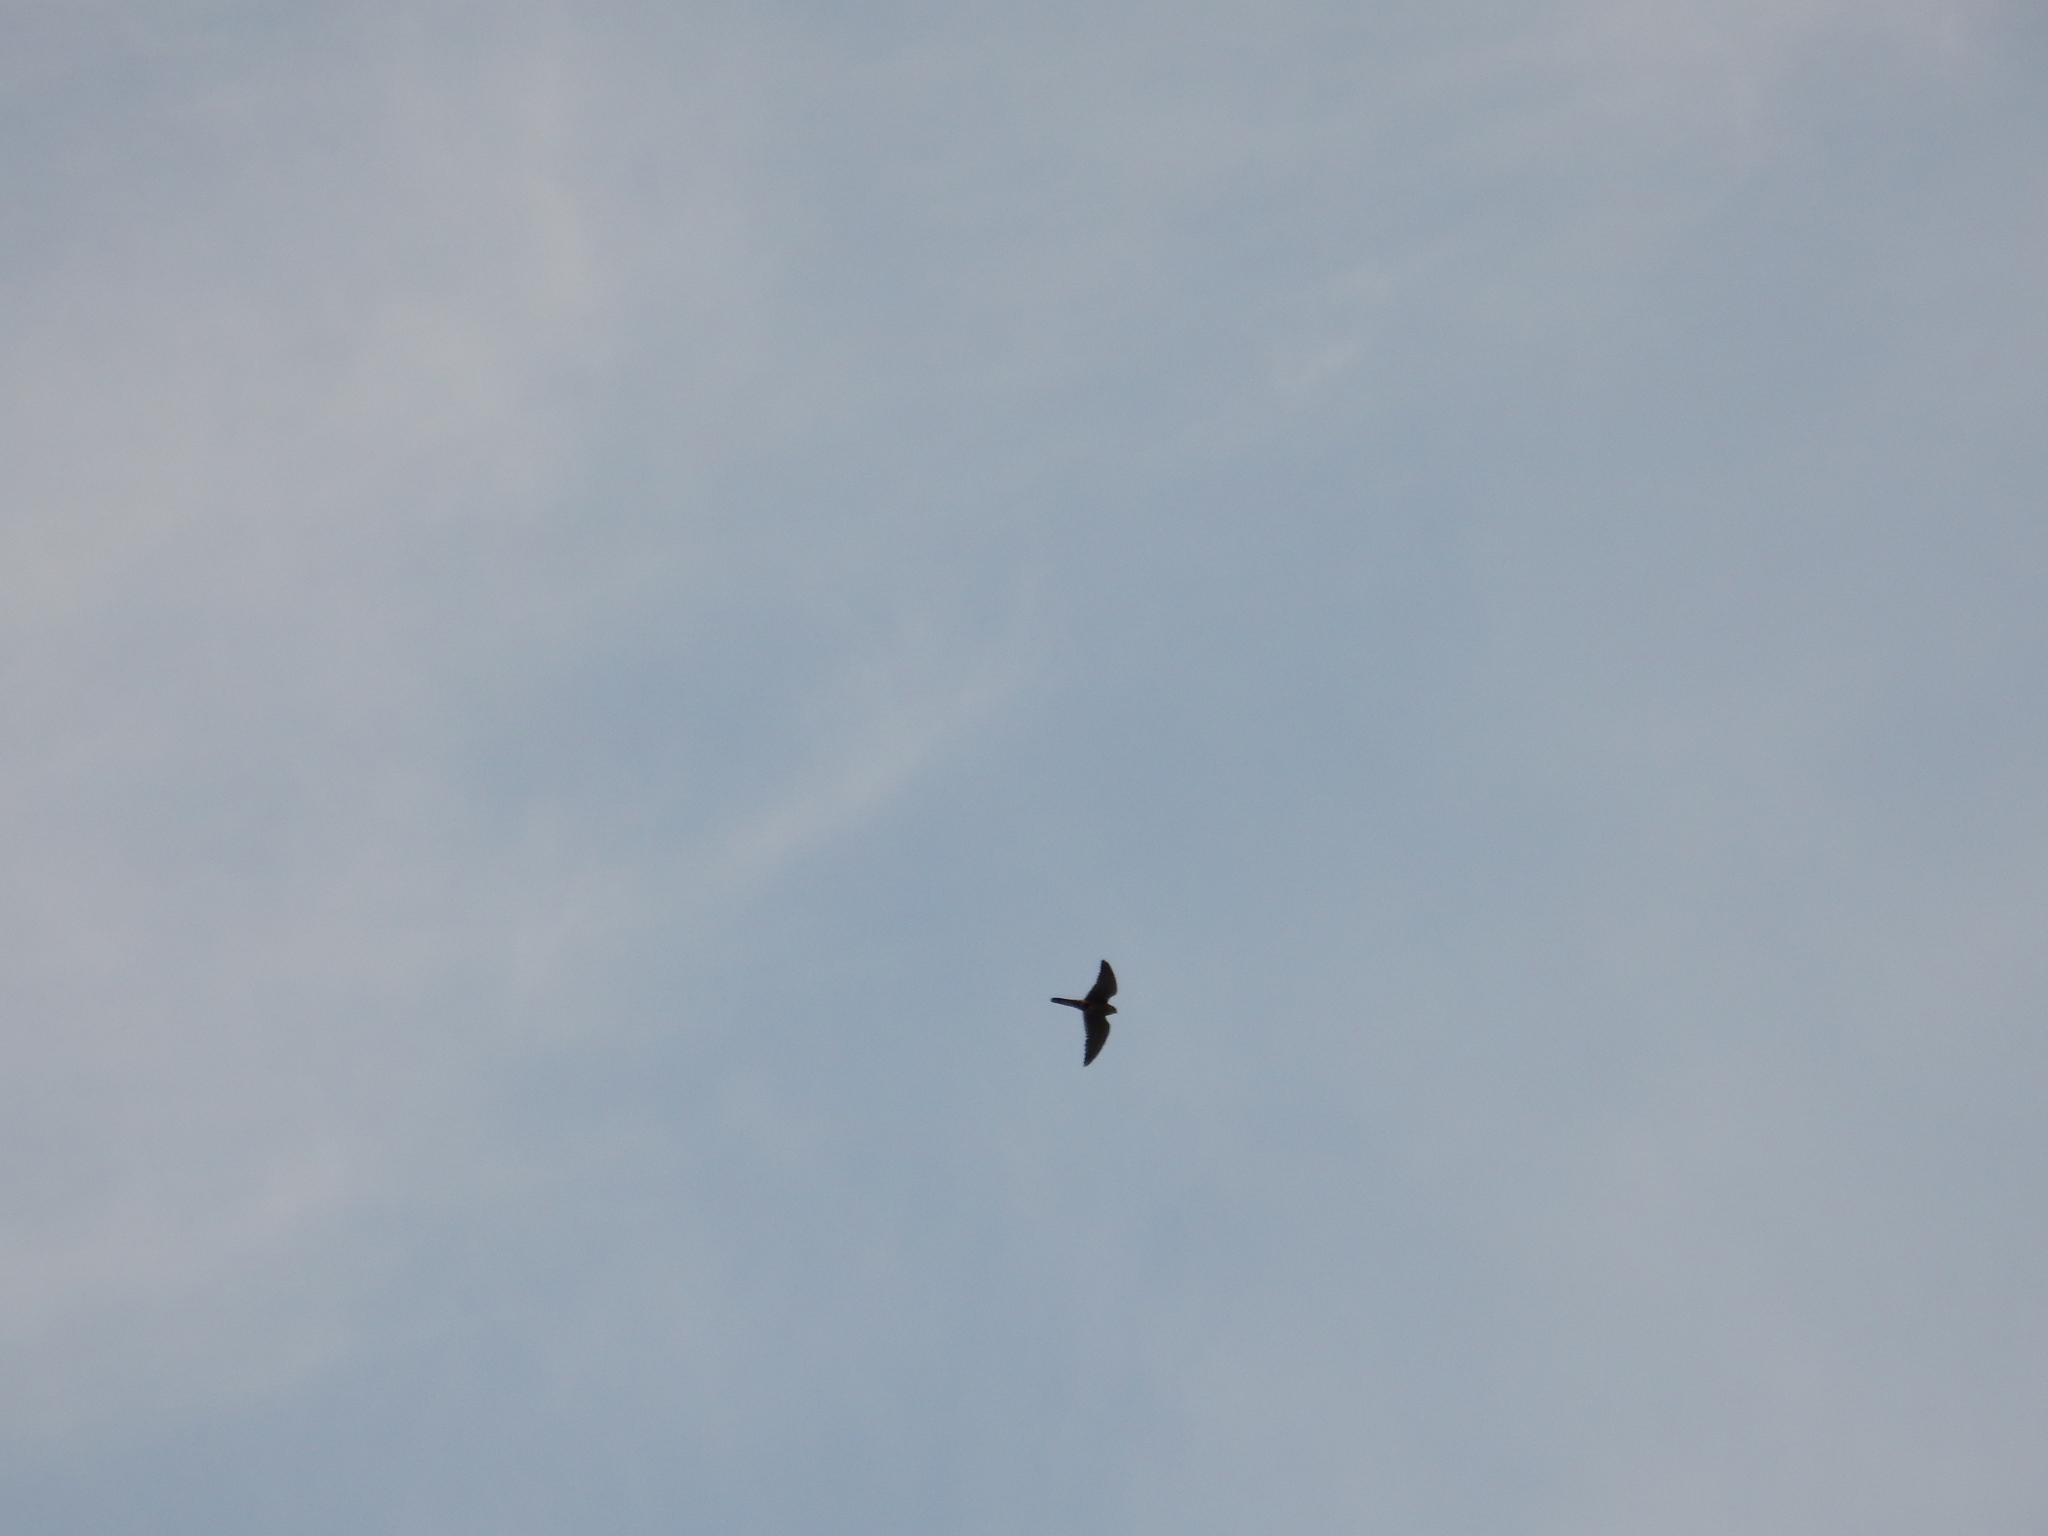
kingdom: Animalia
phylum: Chordata
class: Aves
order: Falconiformes
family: Falconidae
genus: Falco
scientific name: Falco tinnunculus
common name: Common kestrel
